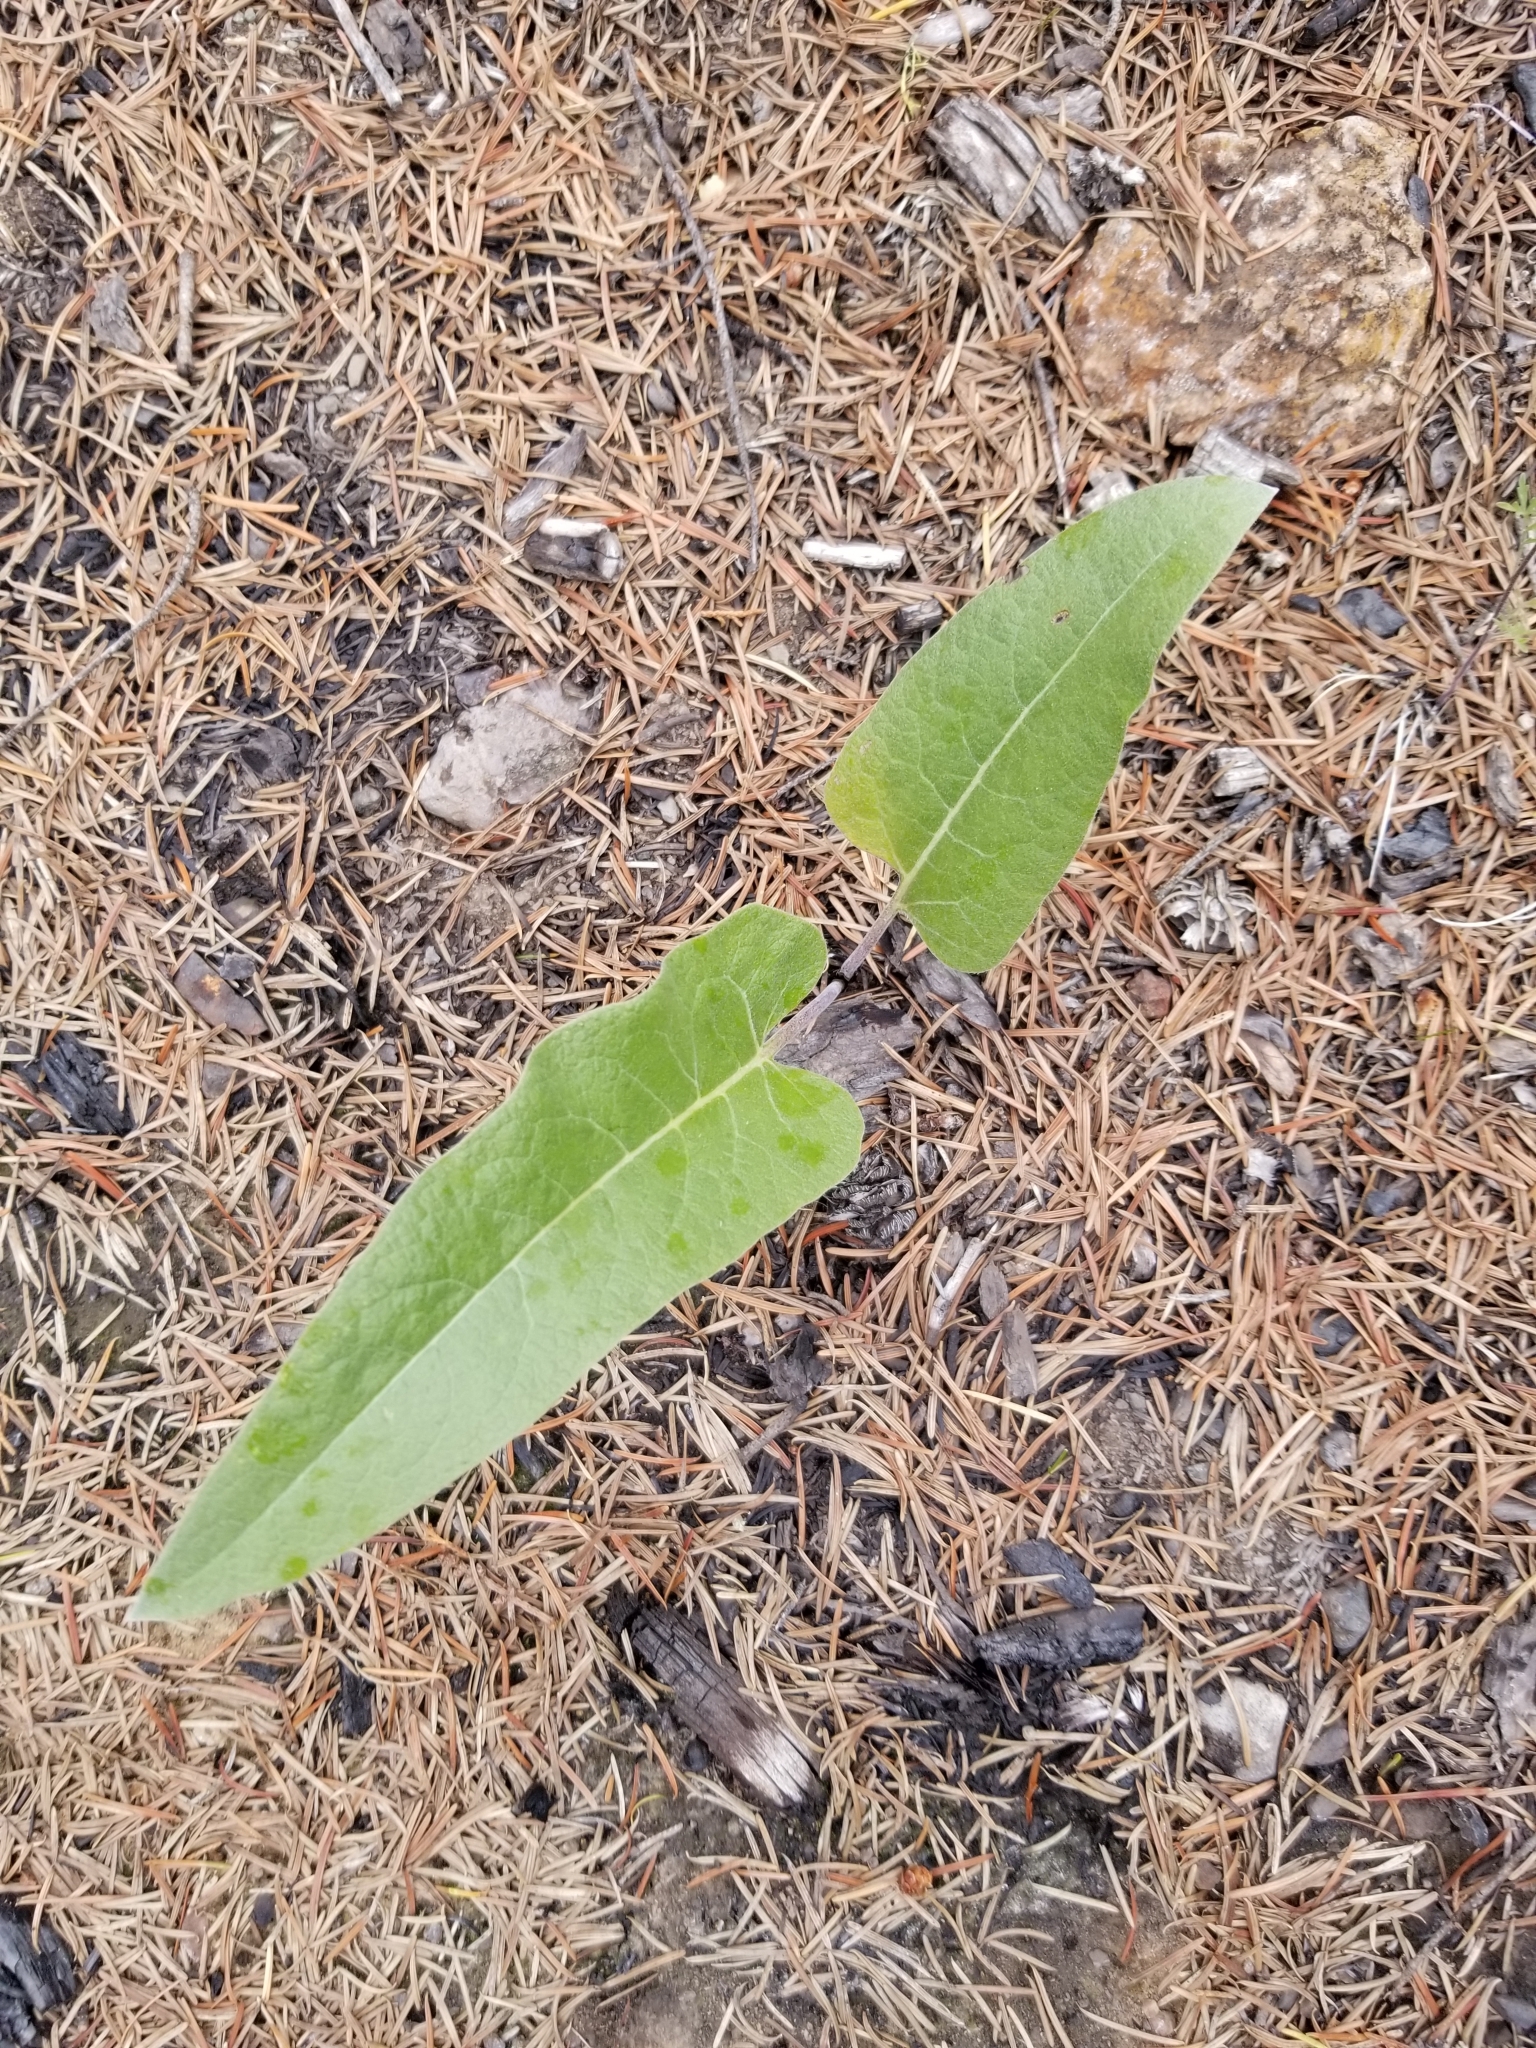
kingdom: Plantae
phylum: Tracheophyta
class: Magnoliopsida
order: Asterales
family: Asteraceae
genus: Wyethia
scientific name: Wyethia sagittata
